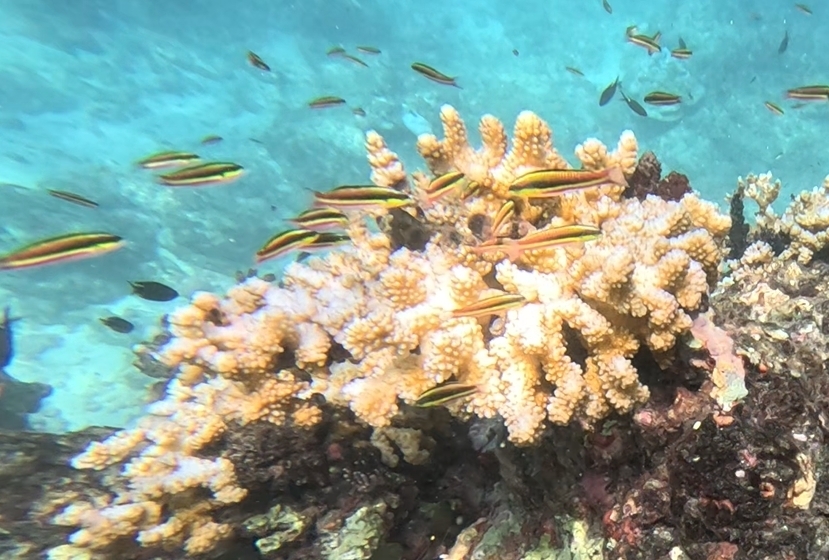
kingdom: Animalia
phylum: Chordata
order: Perciformes
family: Labridae
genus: Thalassoma
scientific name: Thalassoma lucasanum
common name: Cortez rainbow wrasse
